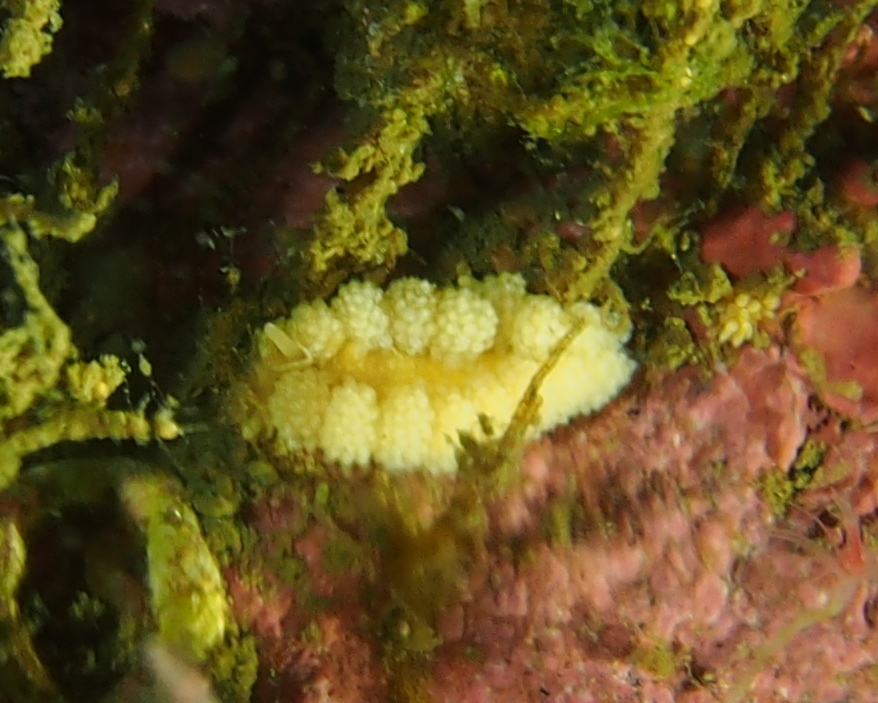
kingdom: Animalia
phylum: Mollusca
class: Gastropoda
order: Nudibranchia
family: Dotidae
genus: Doto
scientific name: Doto fragilis
